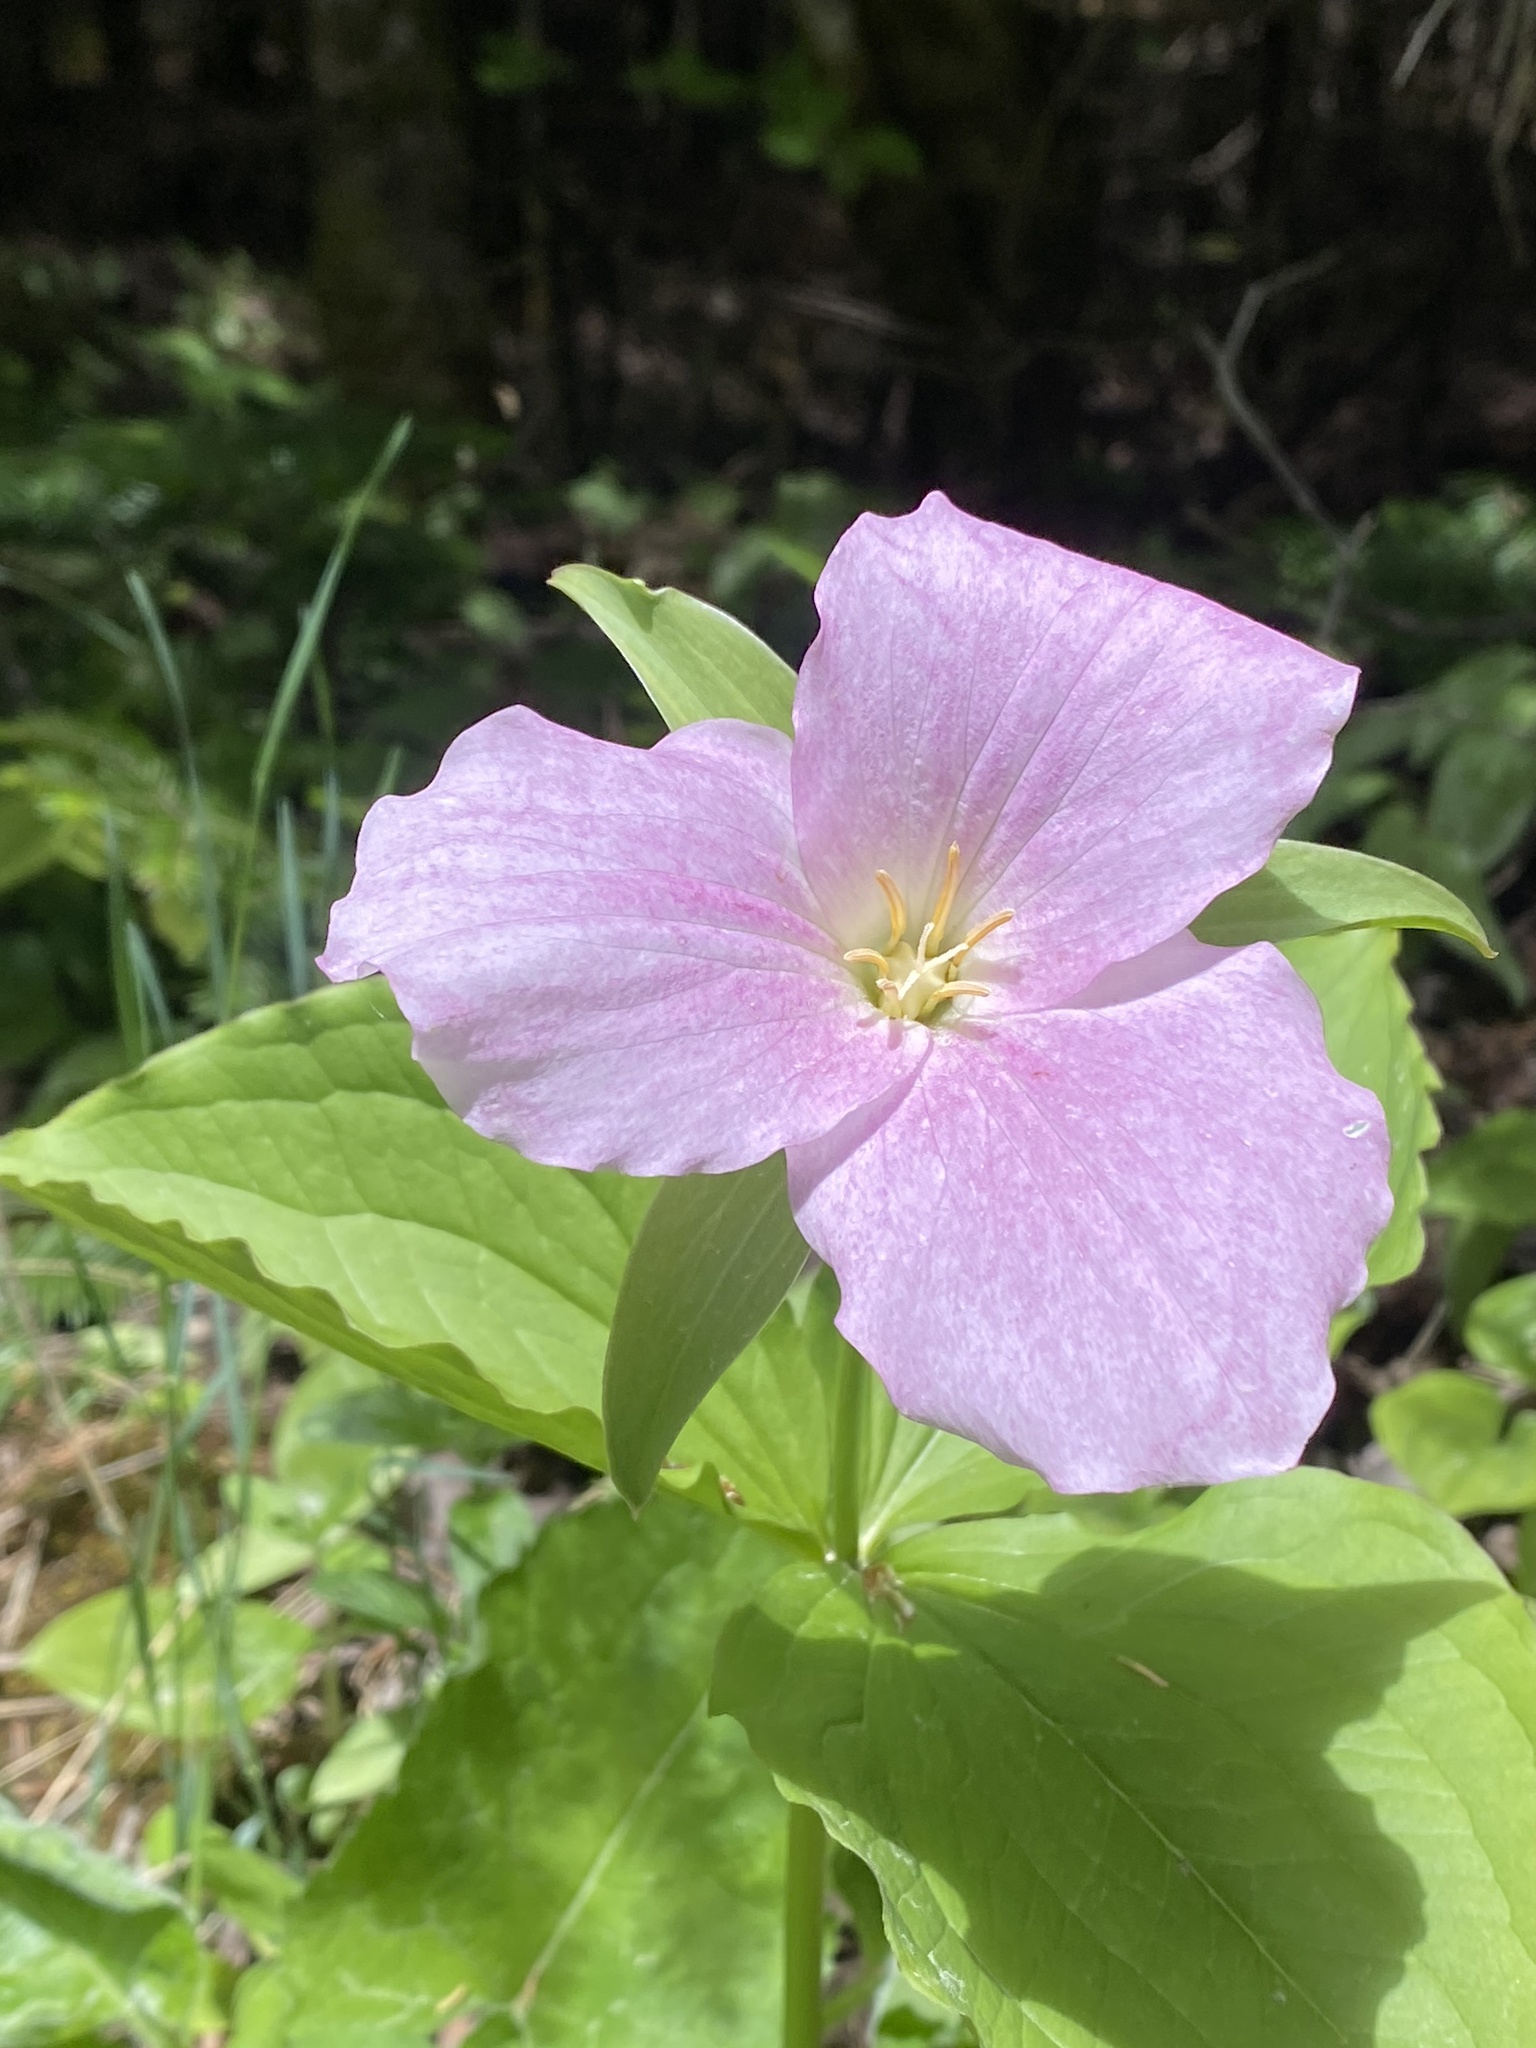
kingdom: Plantae
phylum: Tracheophyta
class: Liliopsida
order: Liliales
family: Melanthiaceae
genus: Trillium
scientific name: Trillium grandiflorum
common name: Great white trillium
